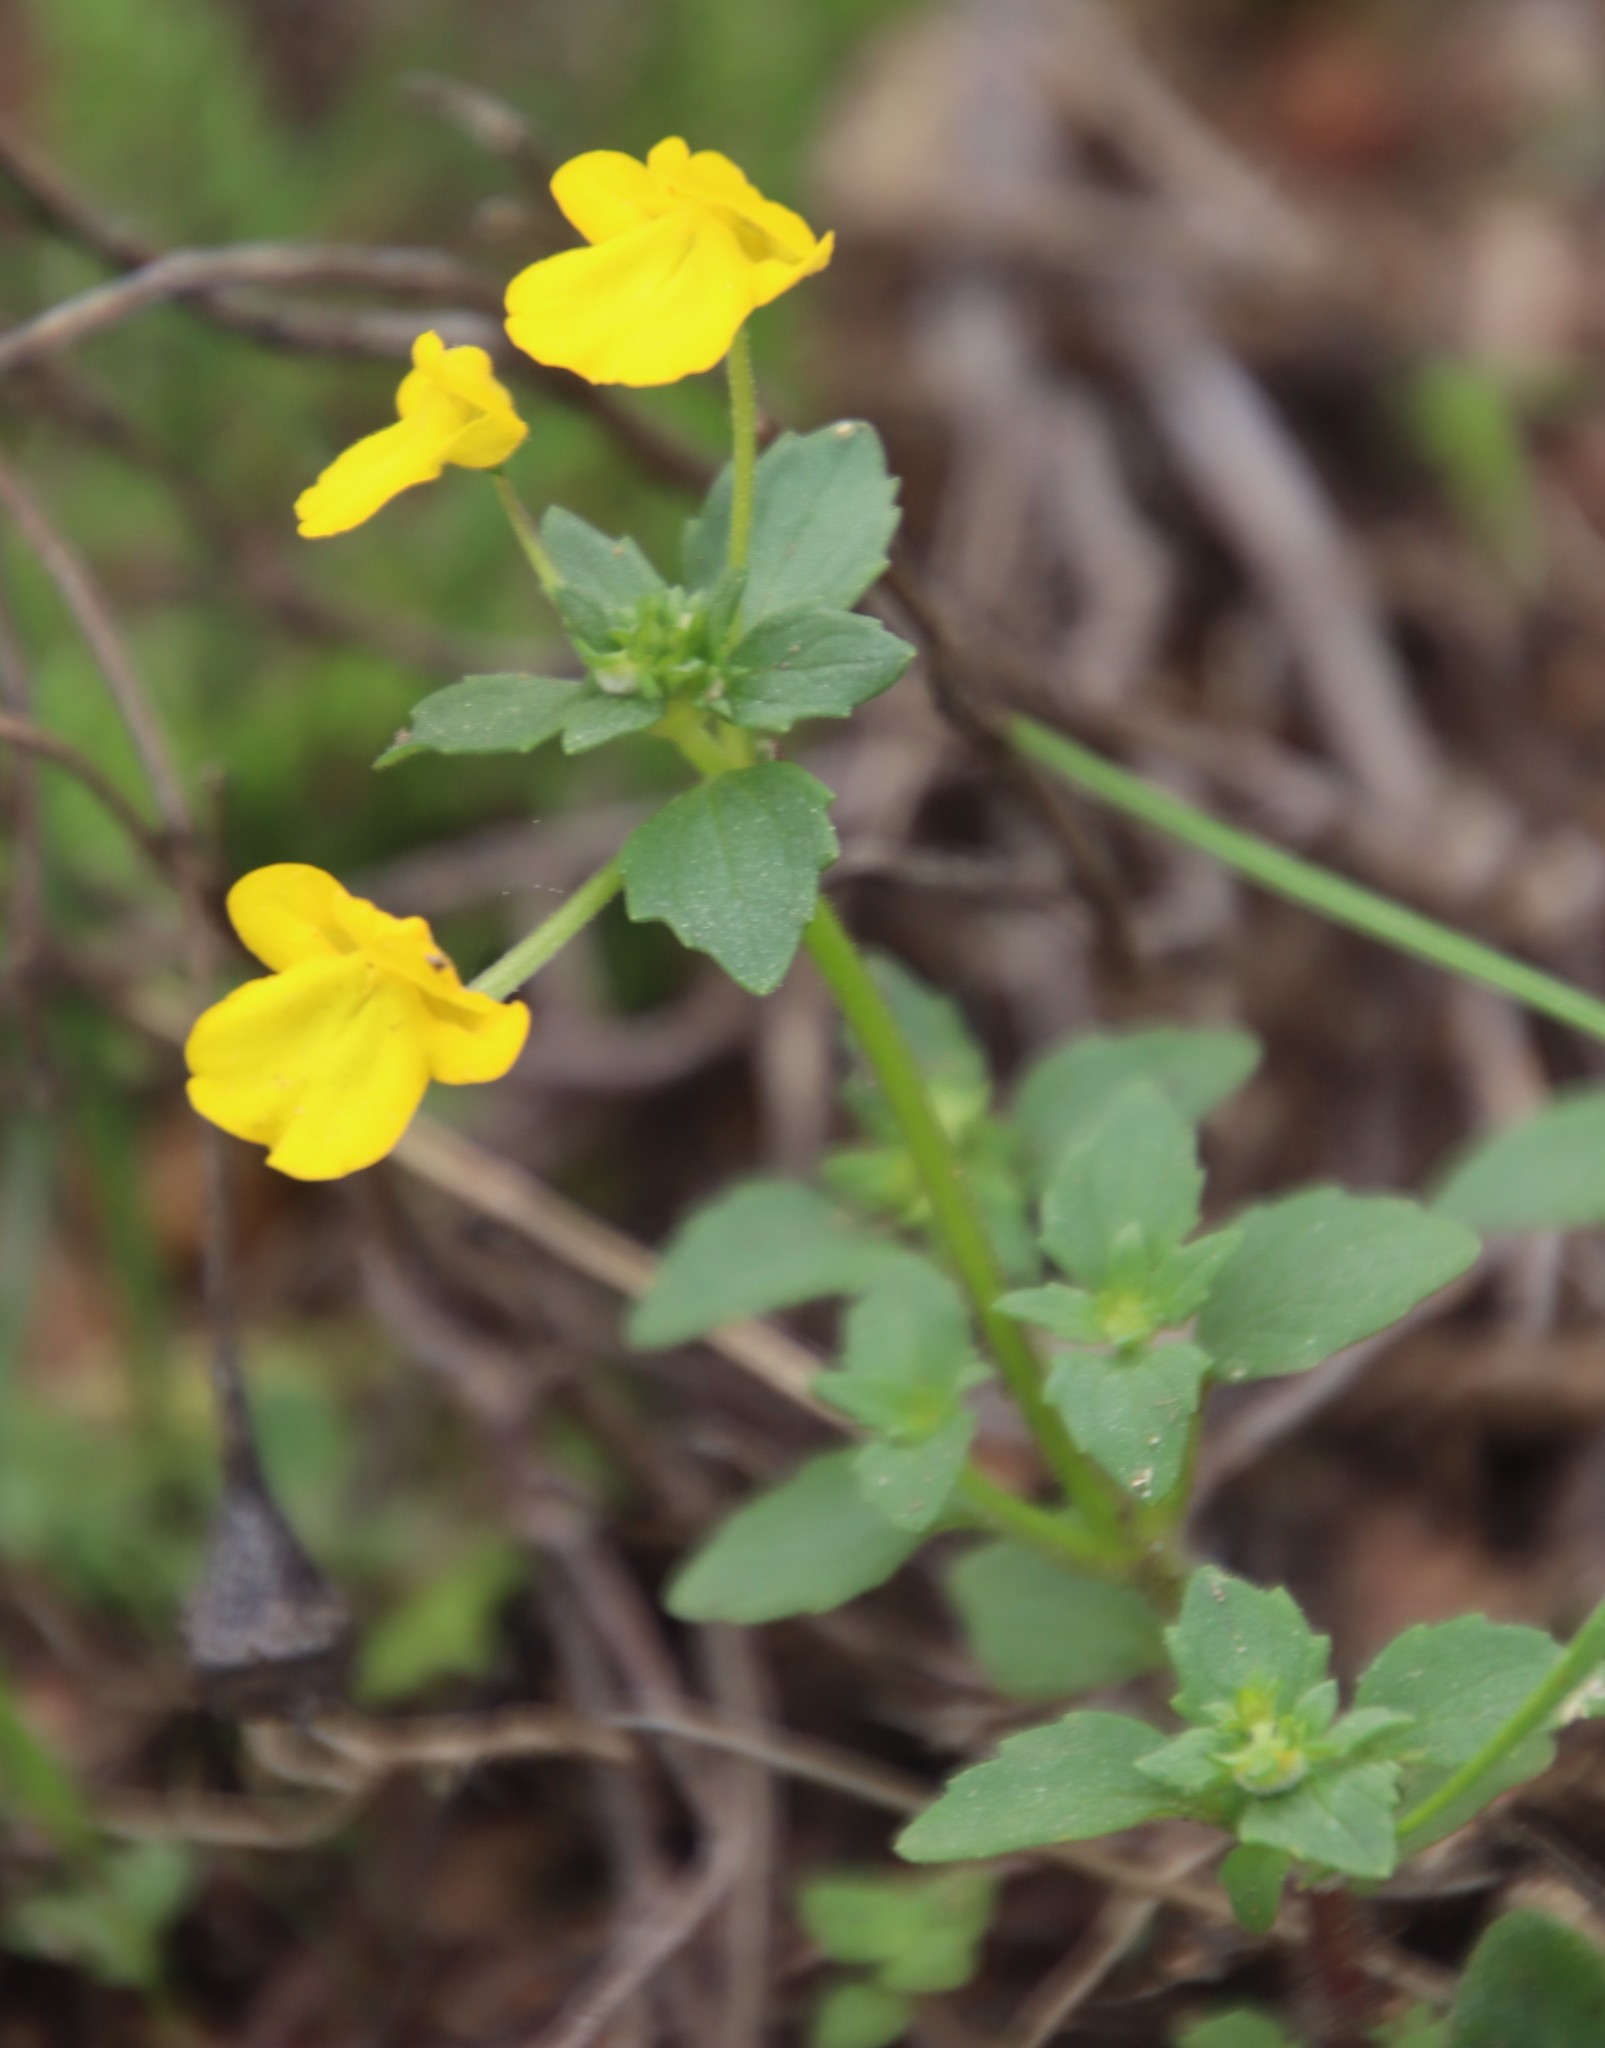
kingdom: Plantae
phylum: Tracheophyta
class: Magnoliopsida
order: Lamiales
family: Scrophulariaceae
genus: Hemimeris
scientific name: Hemimeris racemosa
